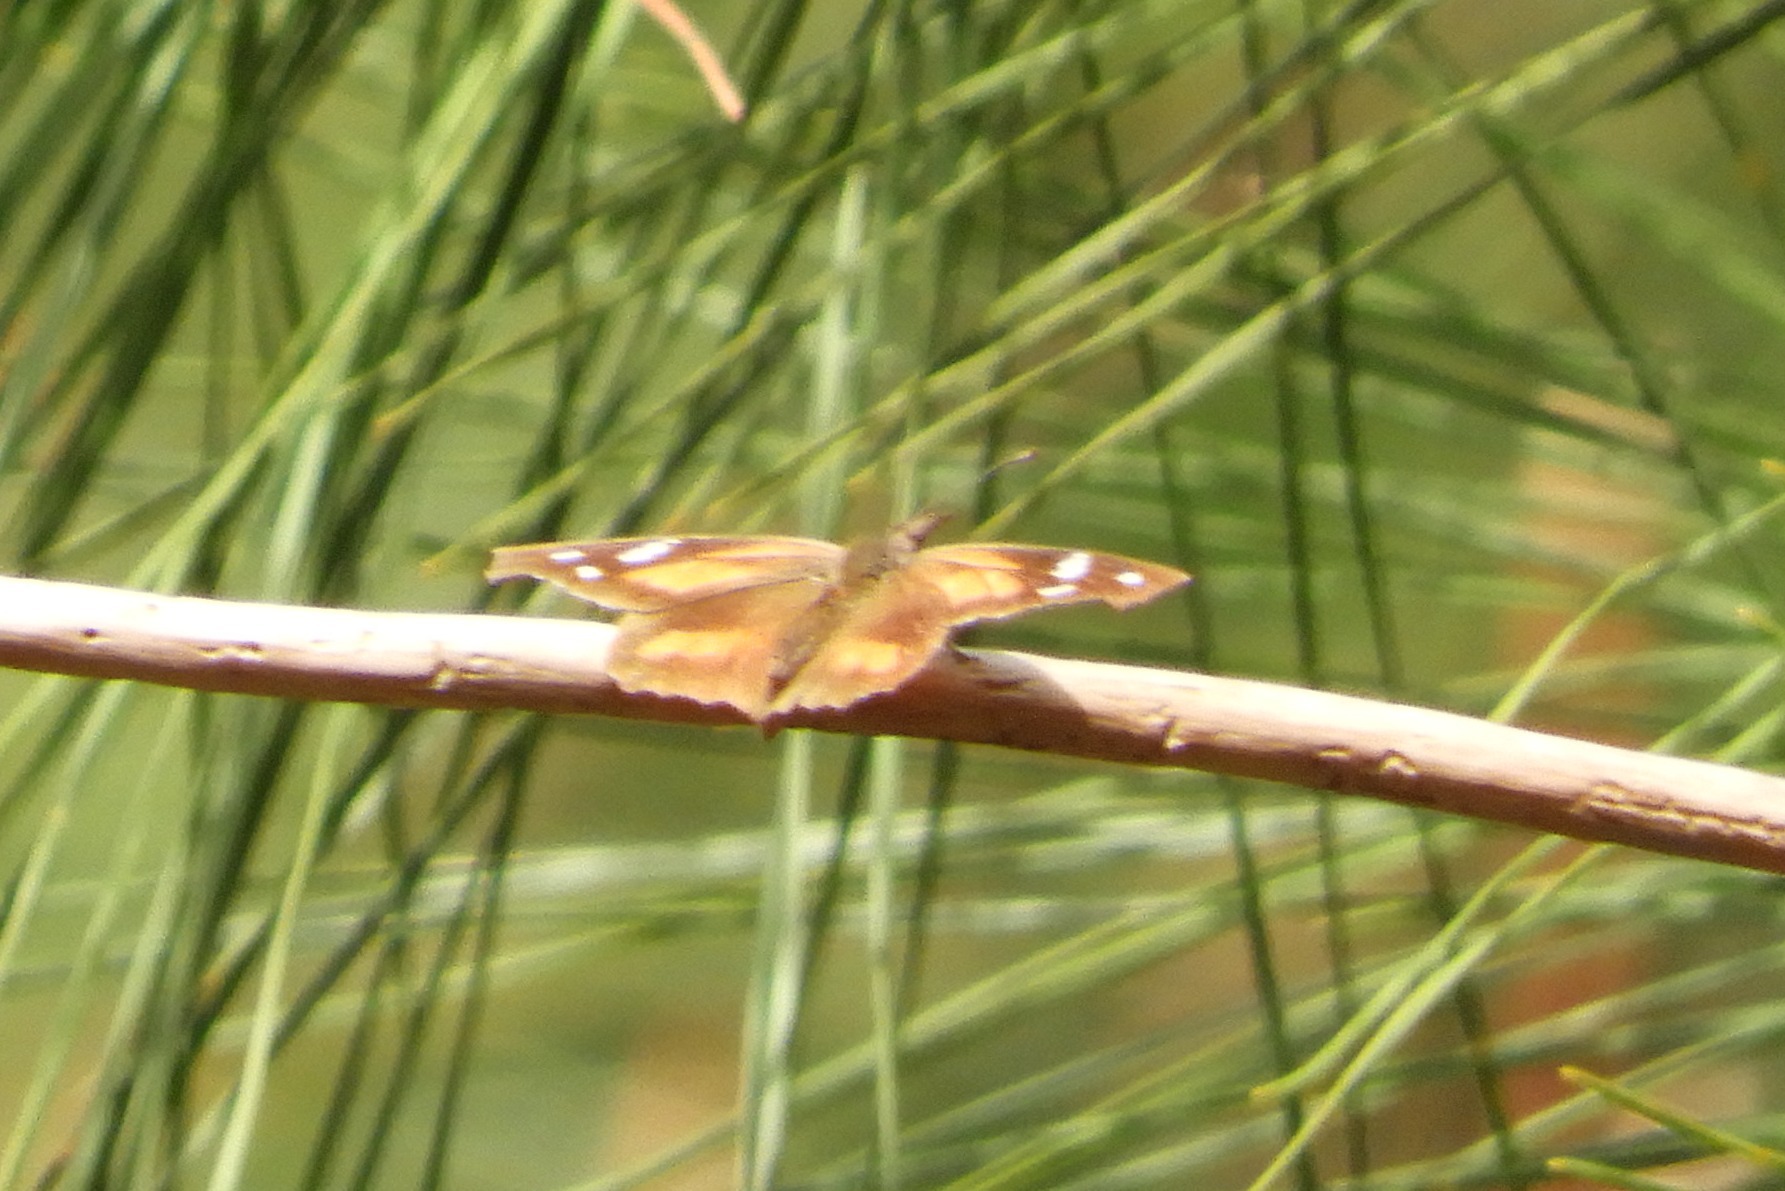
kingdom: Animalia
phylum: Arthropoda
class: Insecta
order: Lepidoptera
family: Nymphalidae
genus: Libytheana
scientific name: Libytheana carinenta
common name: American snout
